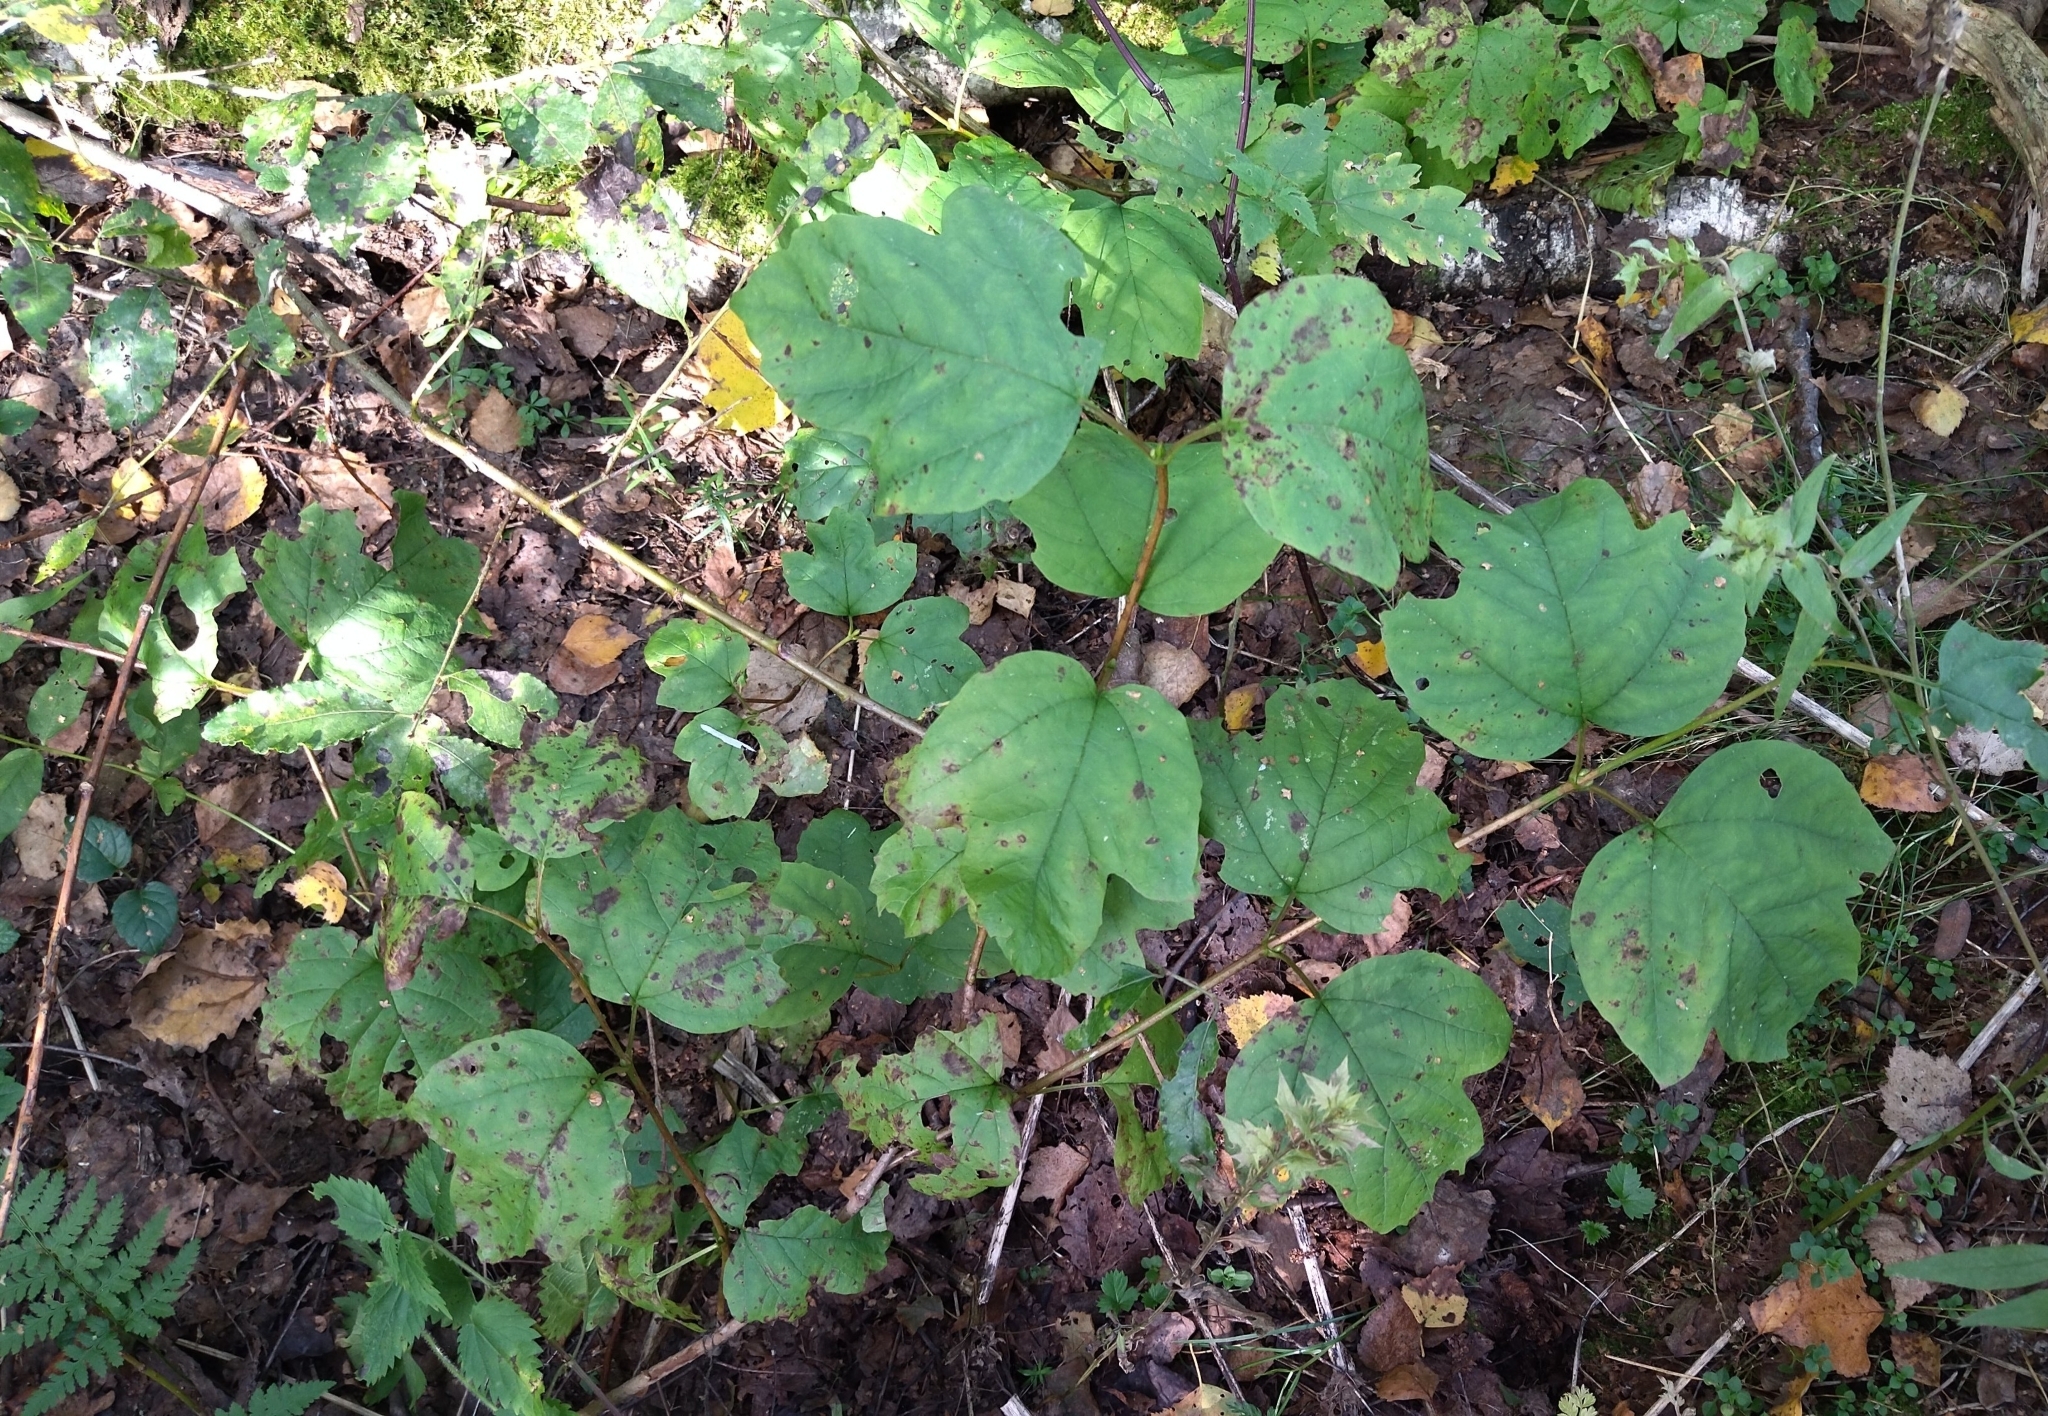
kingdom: Plantae
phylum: Tracheophyta
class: Magnoliopsida
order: Dipsacales
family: Viburnaceae
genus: Viburnum
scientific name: Viburnum opulus
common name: Guelder-rose
